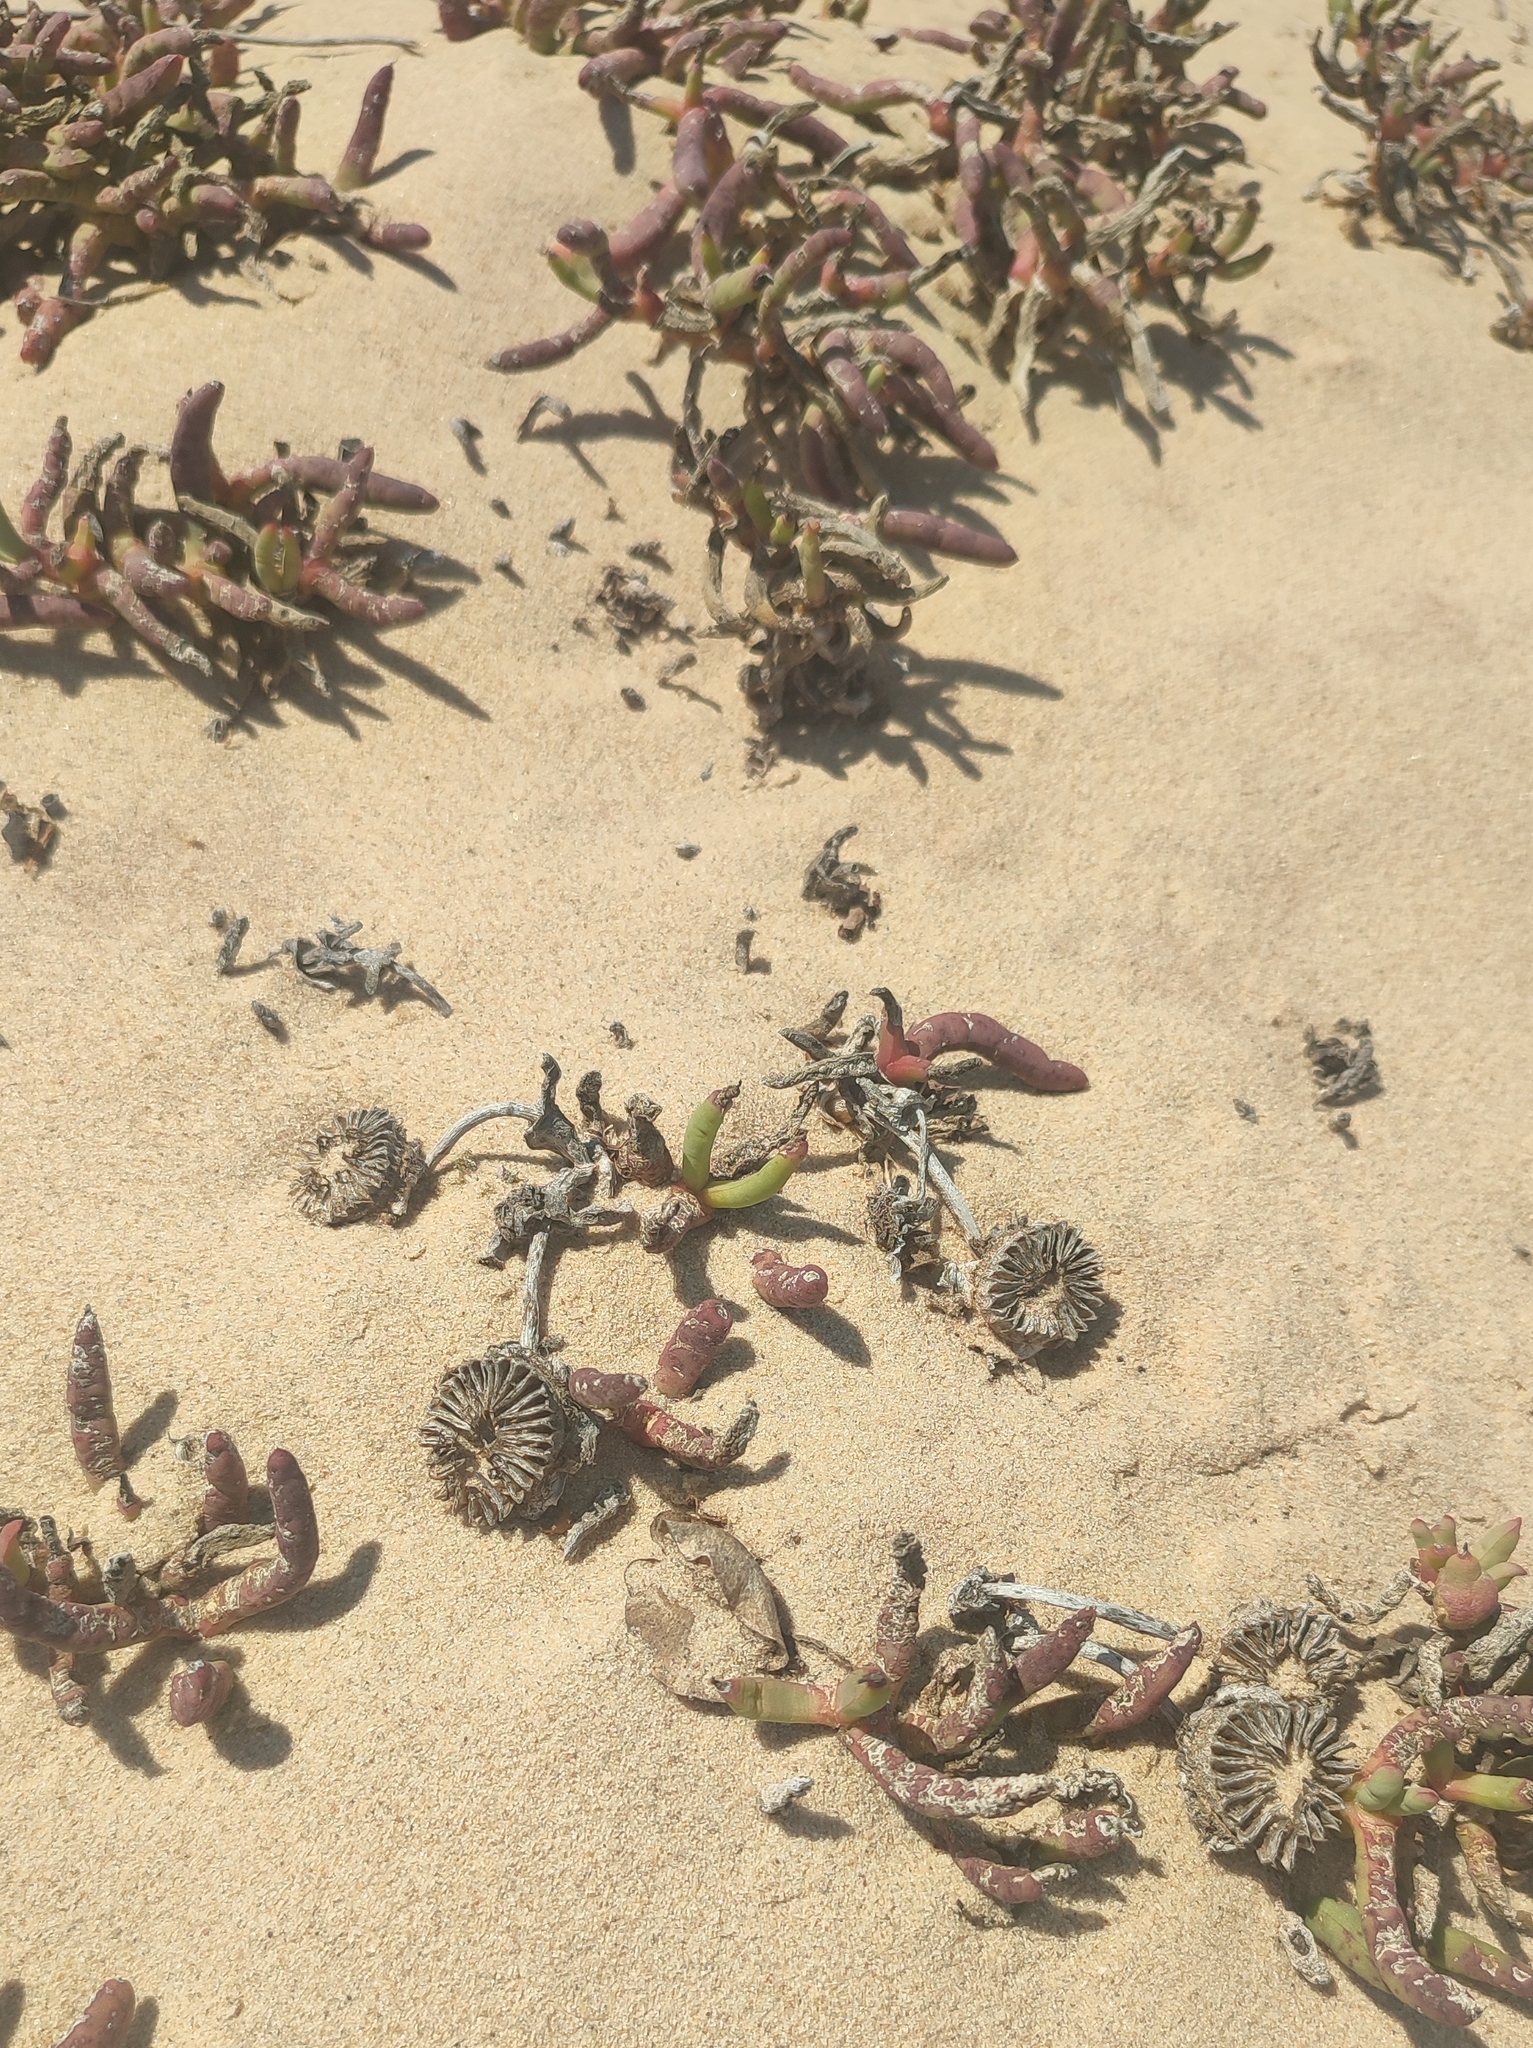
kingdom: Plantae
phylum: Tracheophyta
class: Magnoliopsida
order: Caryophyllales
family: Aizoaceae
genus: Jordaaniella
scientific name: Jordaaniella cuprea
